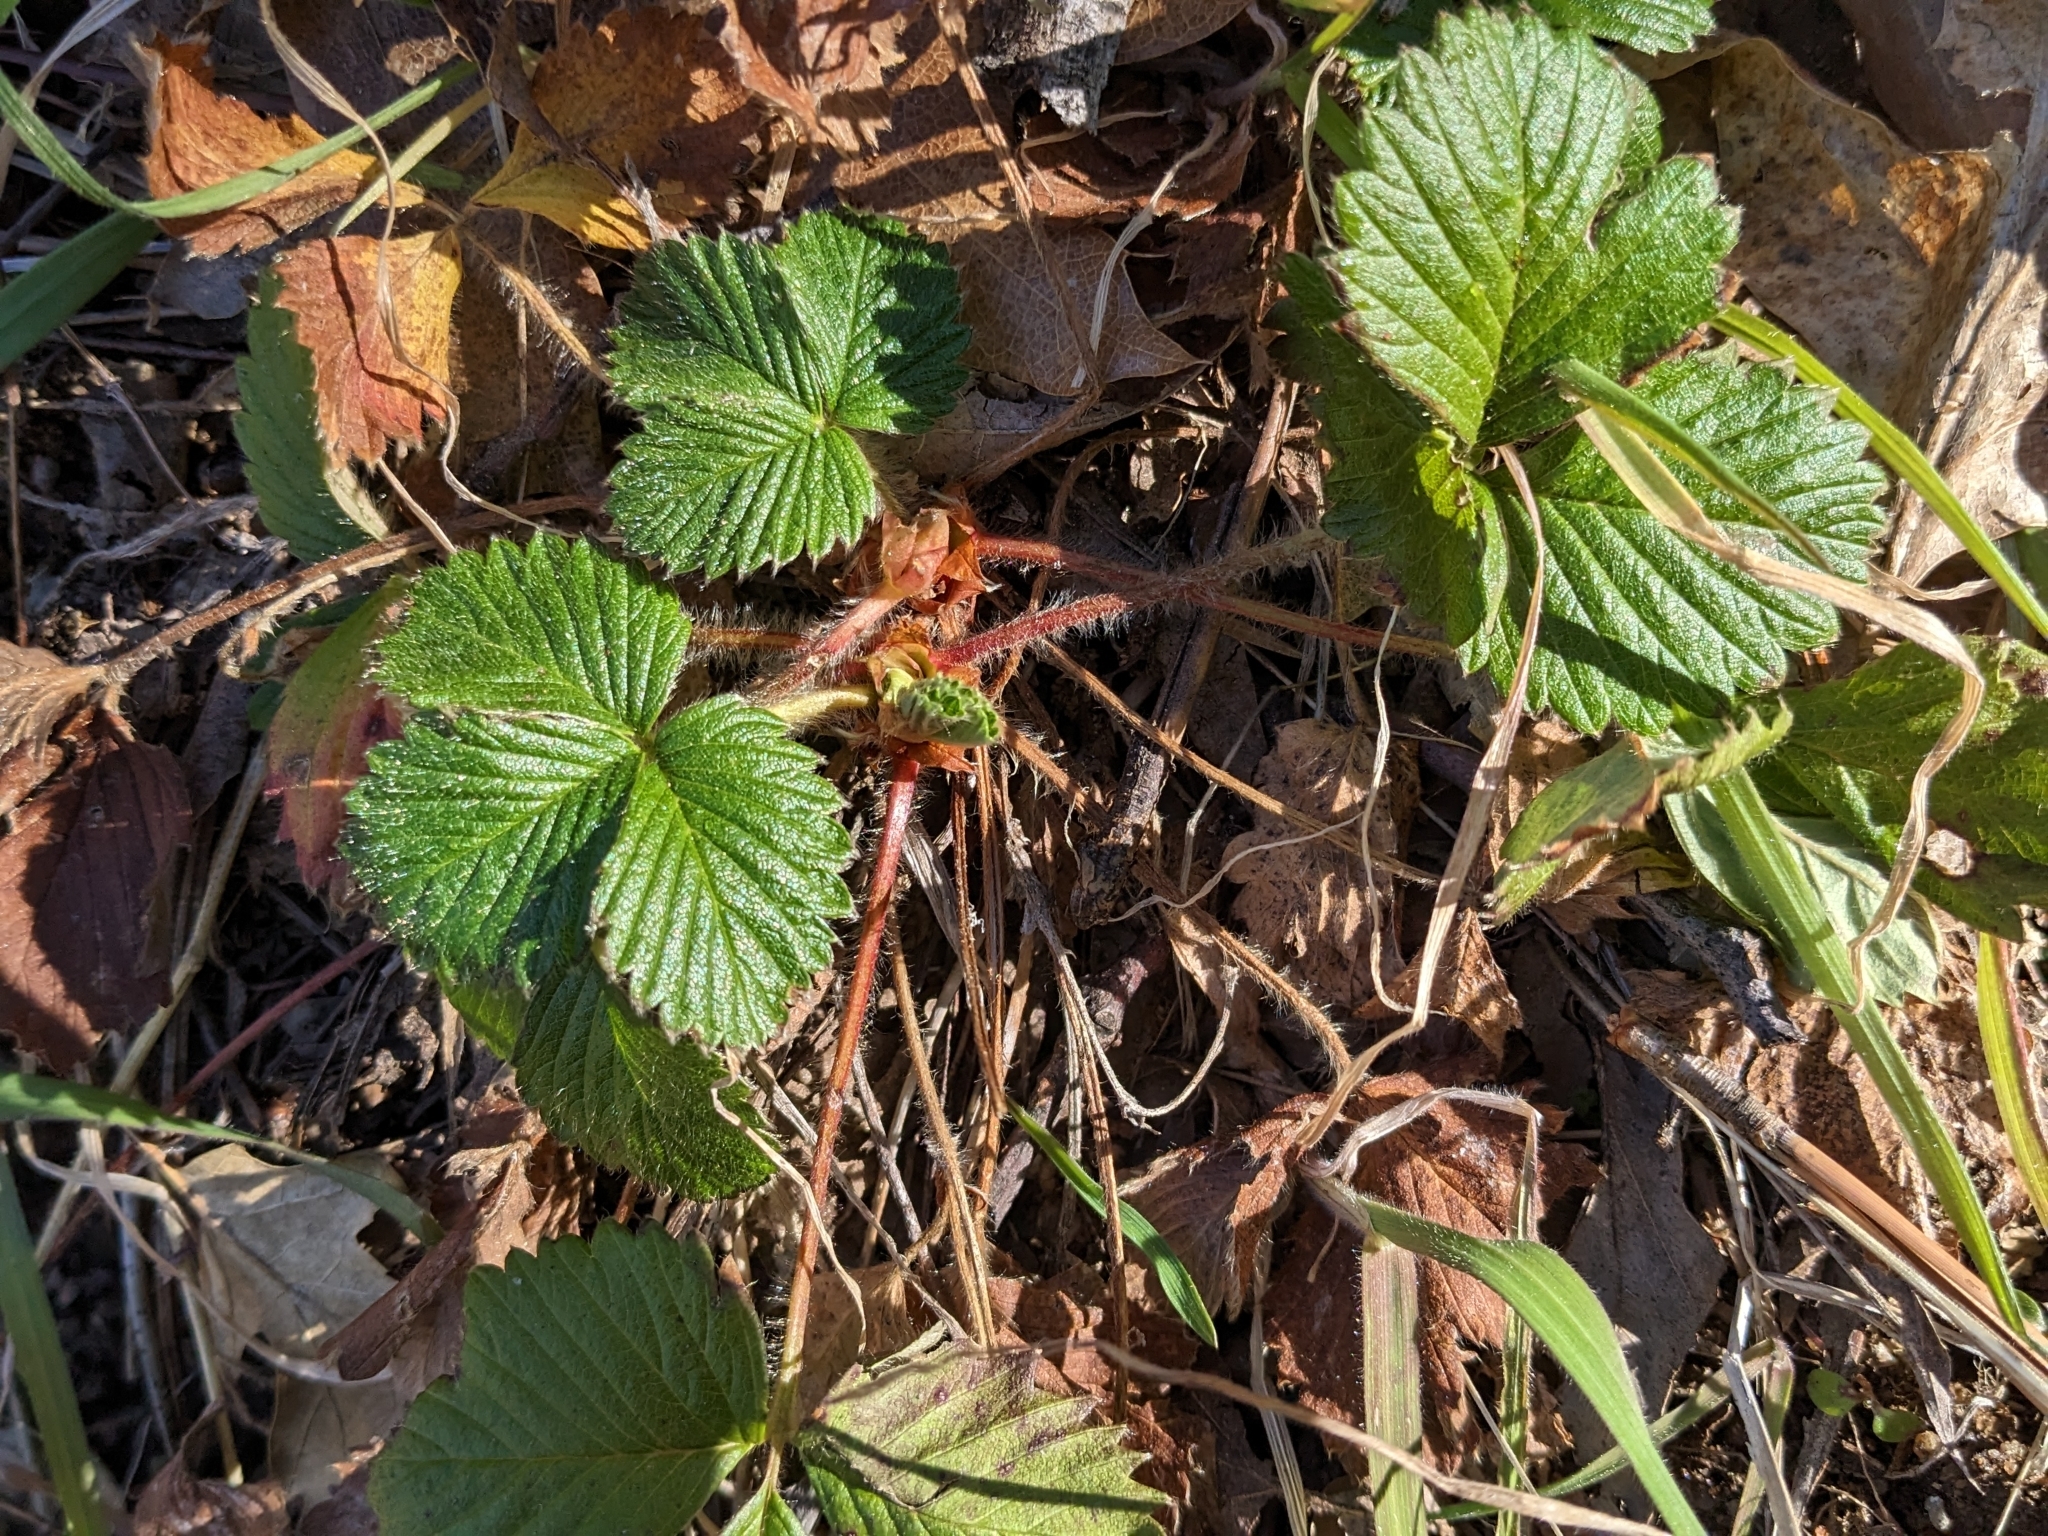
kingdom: Plantae
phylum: Tracheophyta
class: Magnoliopsida
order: Rosales
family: Rosaceae
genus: Drymocallis
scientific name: Drymocallis glandulosa
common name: Sticky cinquefoil
